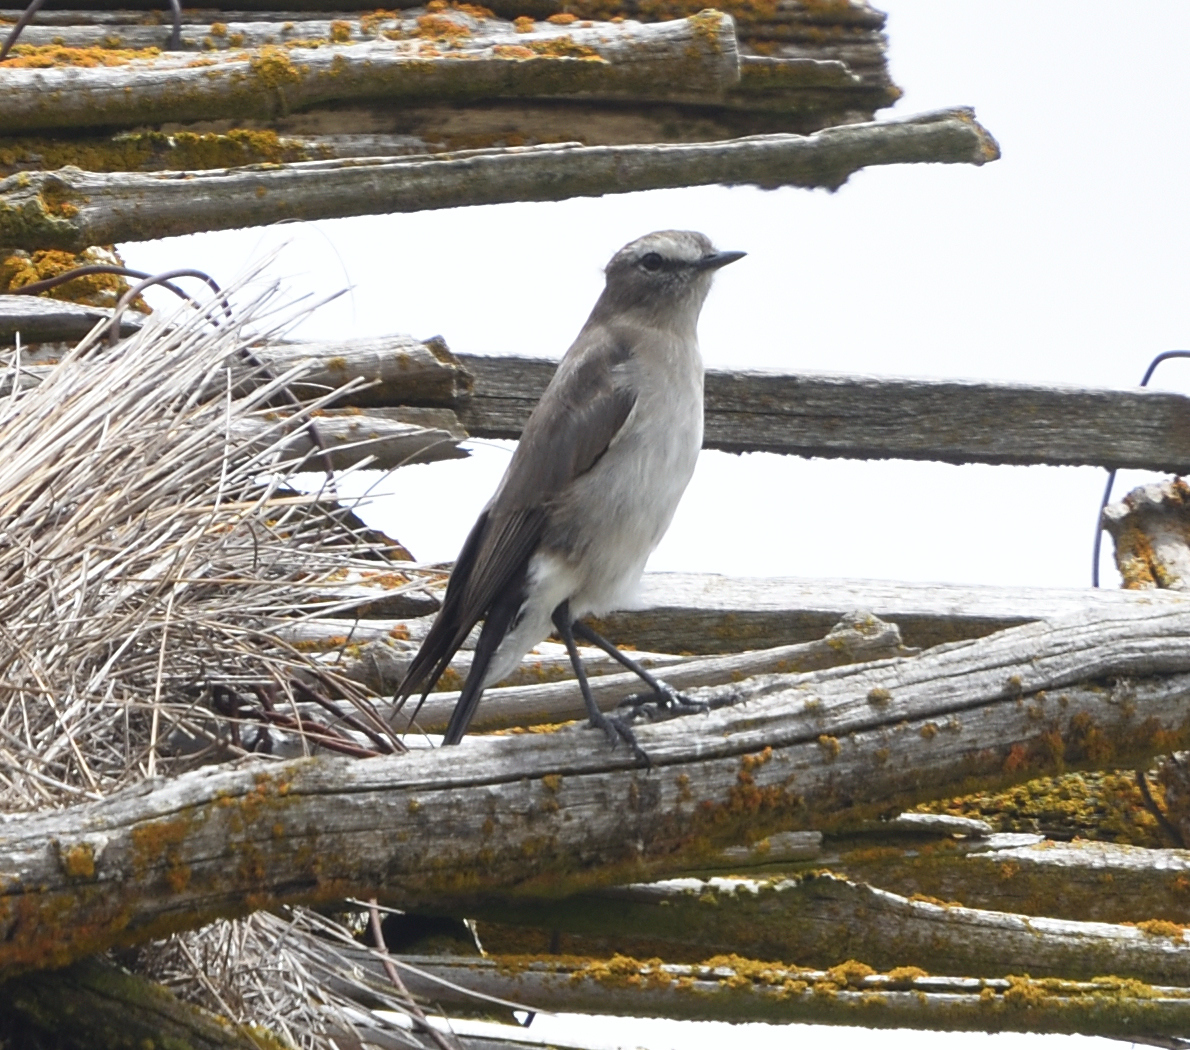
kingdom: Animalia
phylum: Chordata
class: Aves
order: Passeriformes
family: Tyrannidae
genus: Muscisaxicola
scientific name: Muscisaxicola alpinus
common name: Paramo ground tyrant
